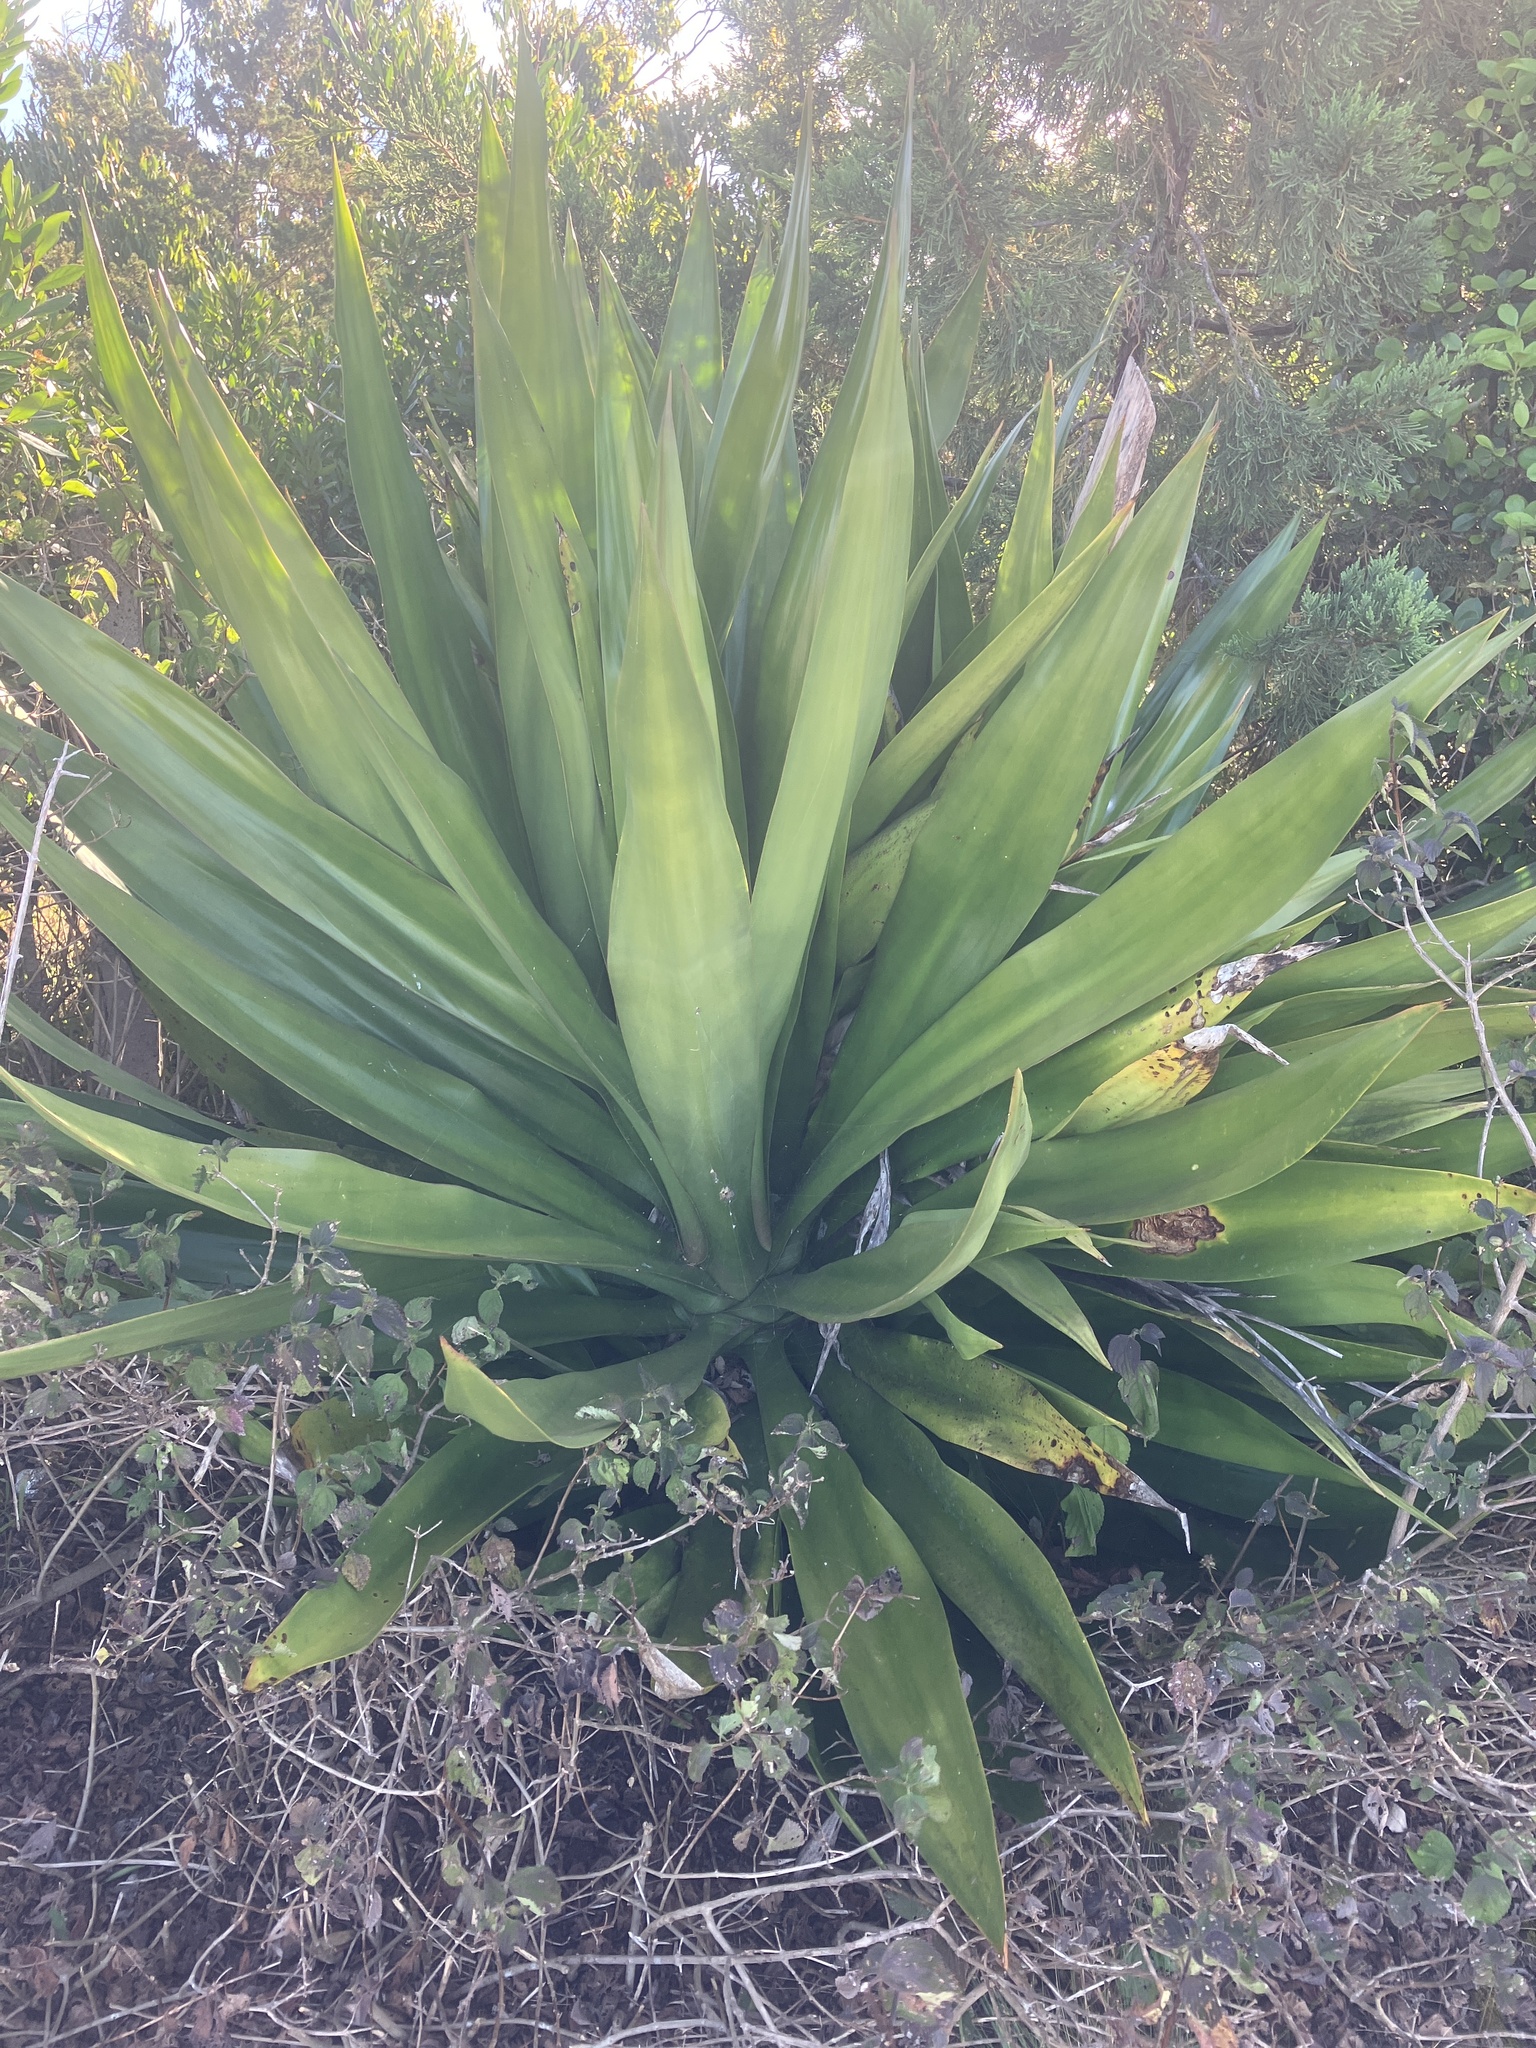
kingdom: Plantae
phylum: Tracheophyta
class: Liliopsida
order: Asparagales
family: Asparagaceae
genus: Furcraea
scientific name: Furcraea foetida
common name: Mauritius hemp
